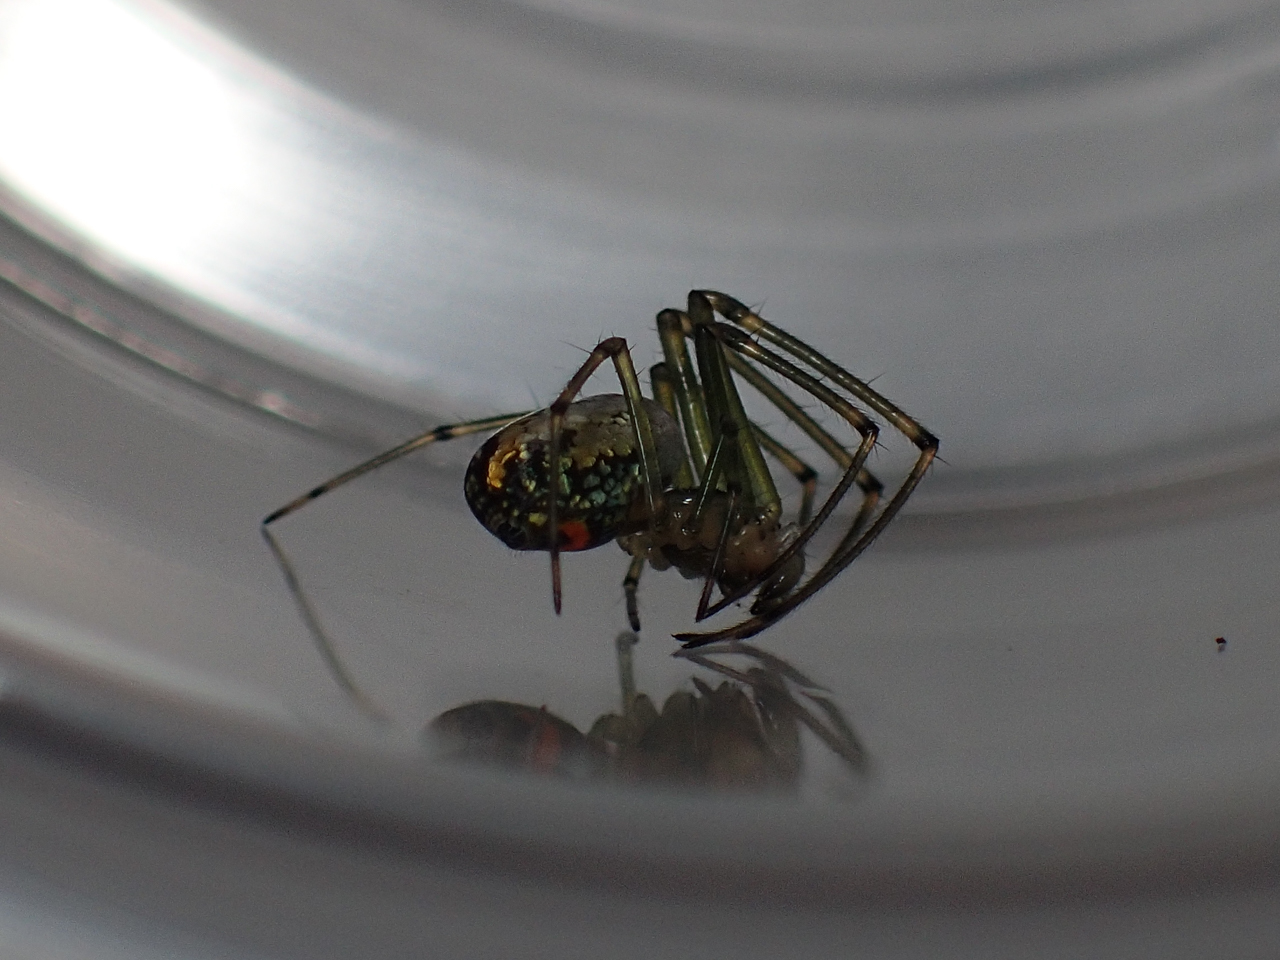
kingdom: Animalia
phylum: Arthropoda
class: Arachnida
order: Araneae
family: Tetragnathidae
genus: Leucauge
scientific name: Leucauge venusta
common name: Longjawed orb weavers
